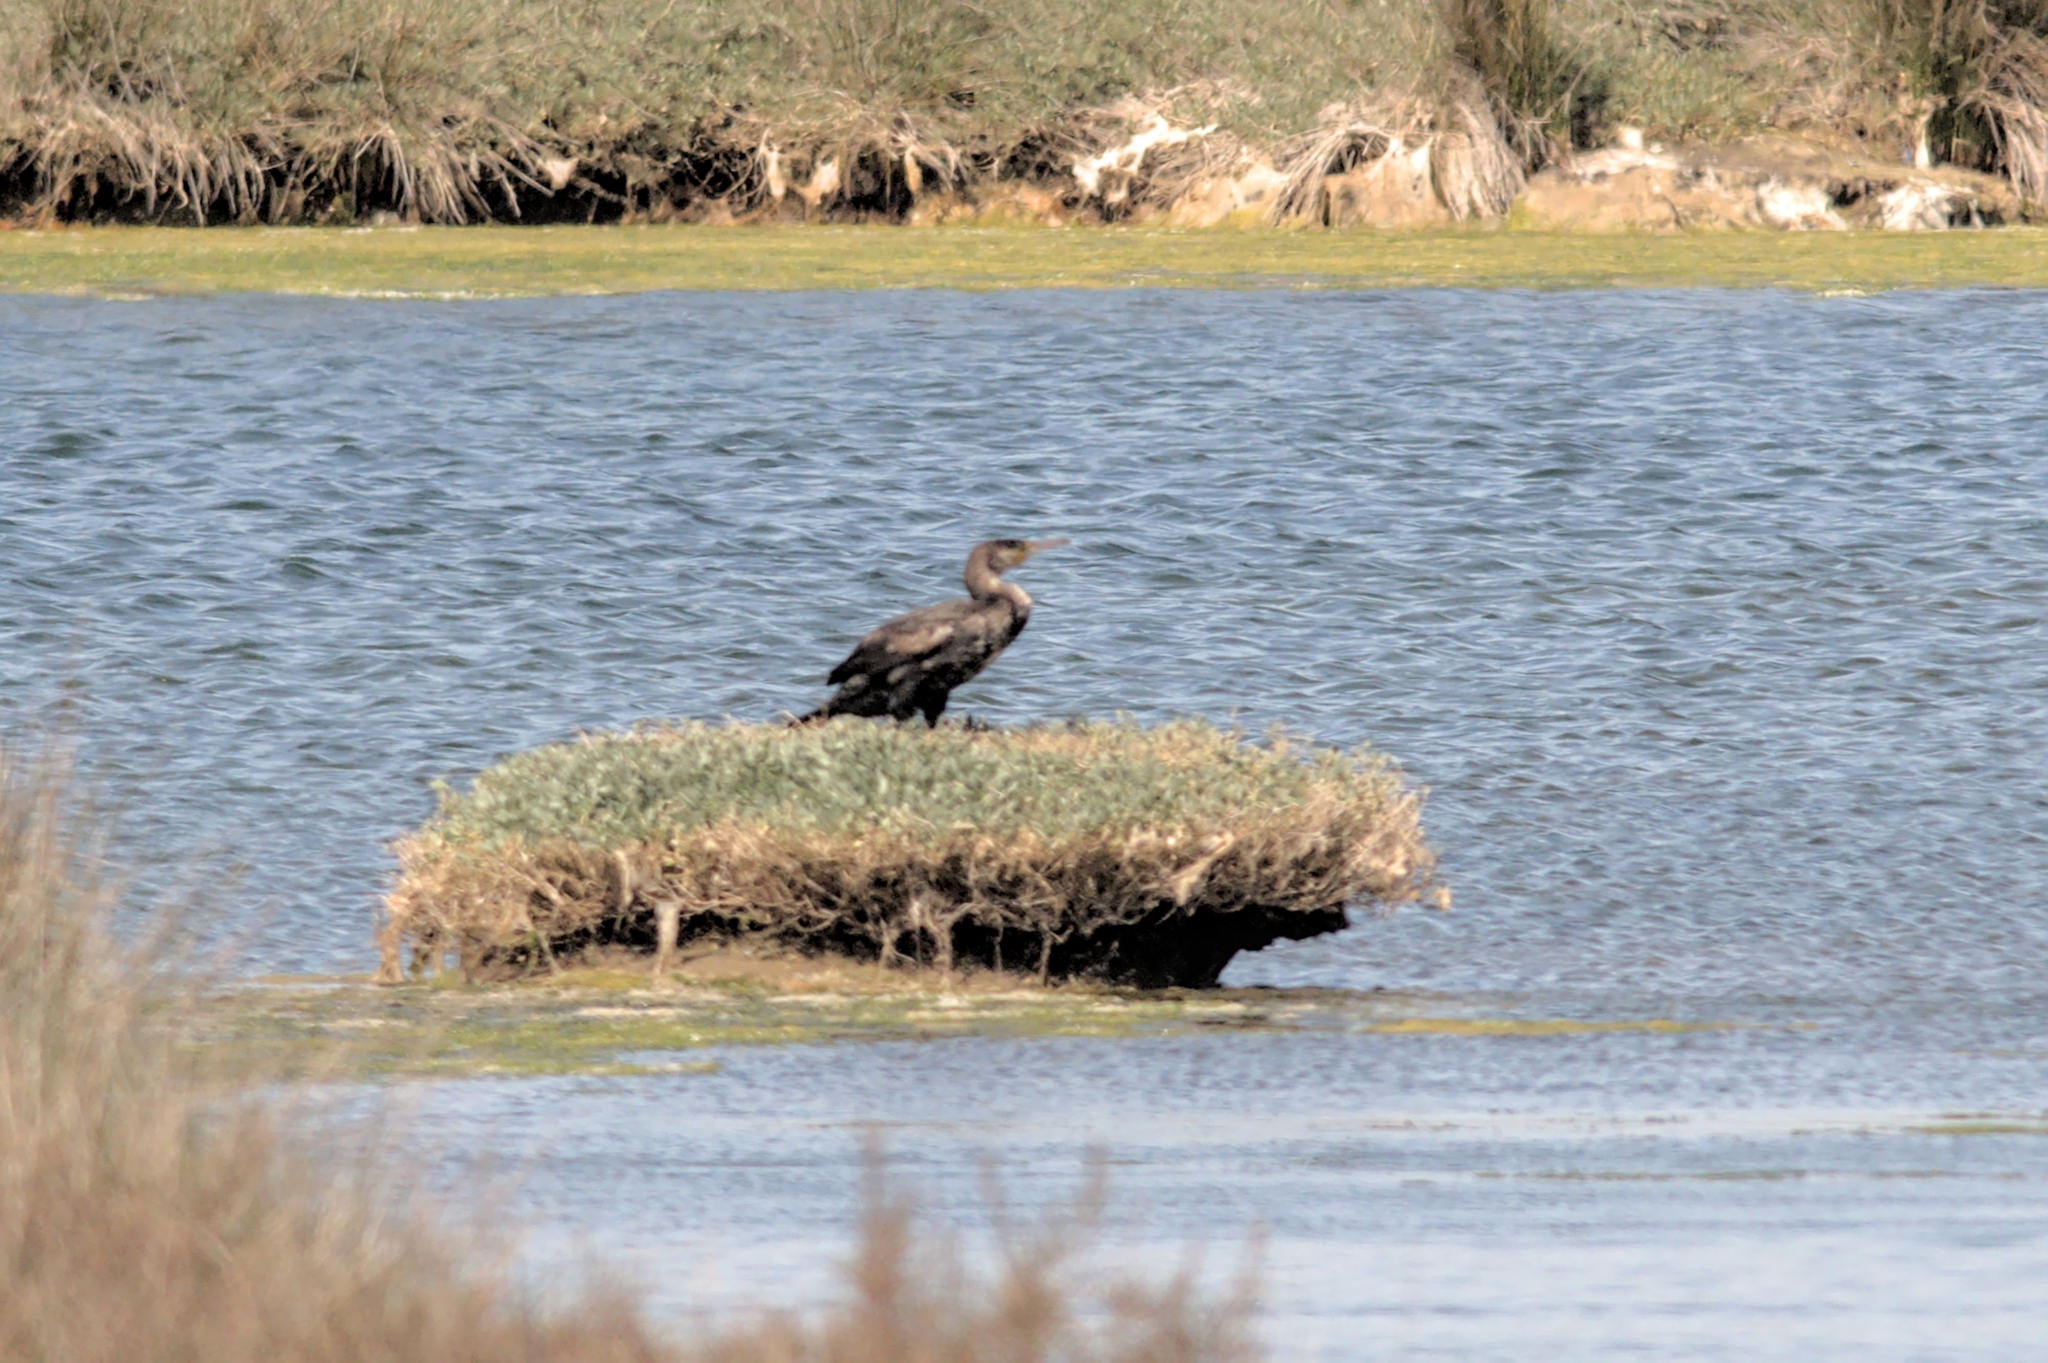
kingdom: Animalia
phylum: Chordata
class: Aves
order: Suliformes
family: Phalacrocoracidae
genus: Phalacrocorax
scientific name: Phalacrocorax carbo
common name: Great cormorant
